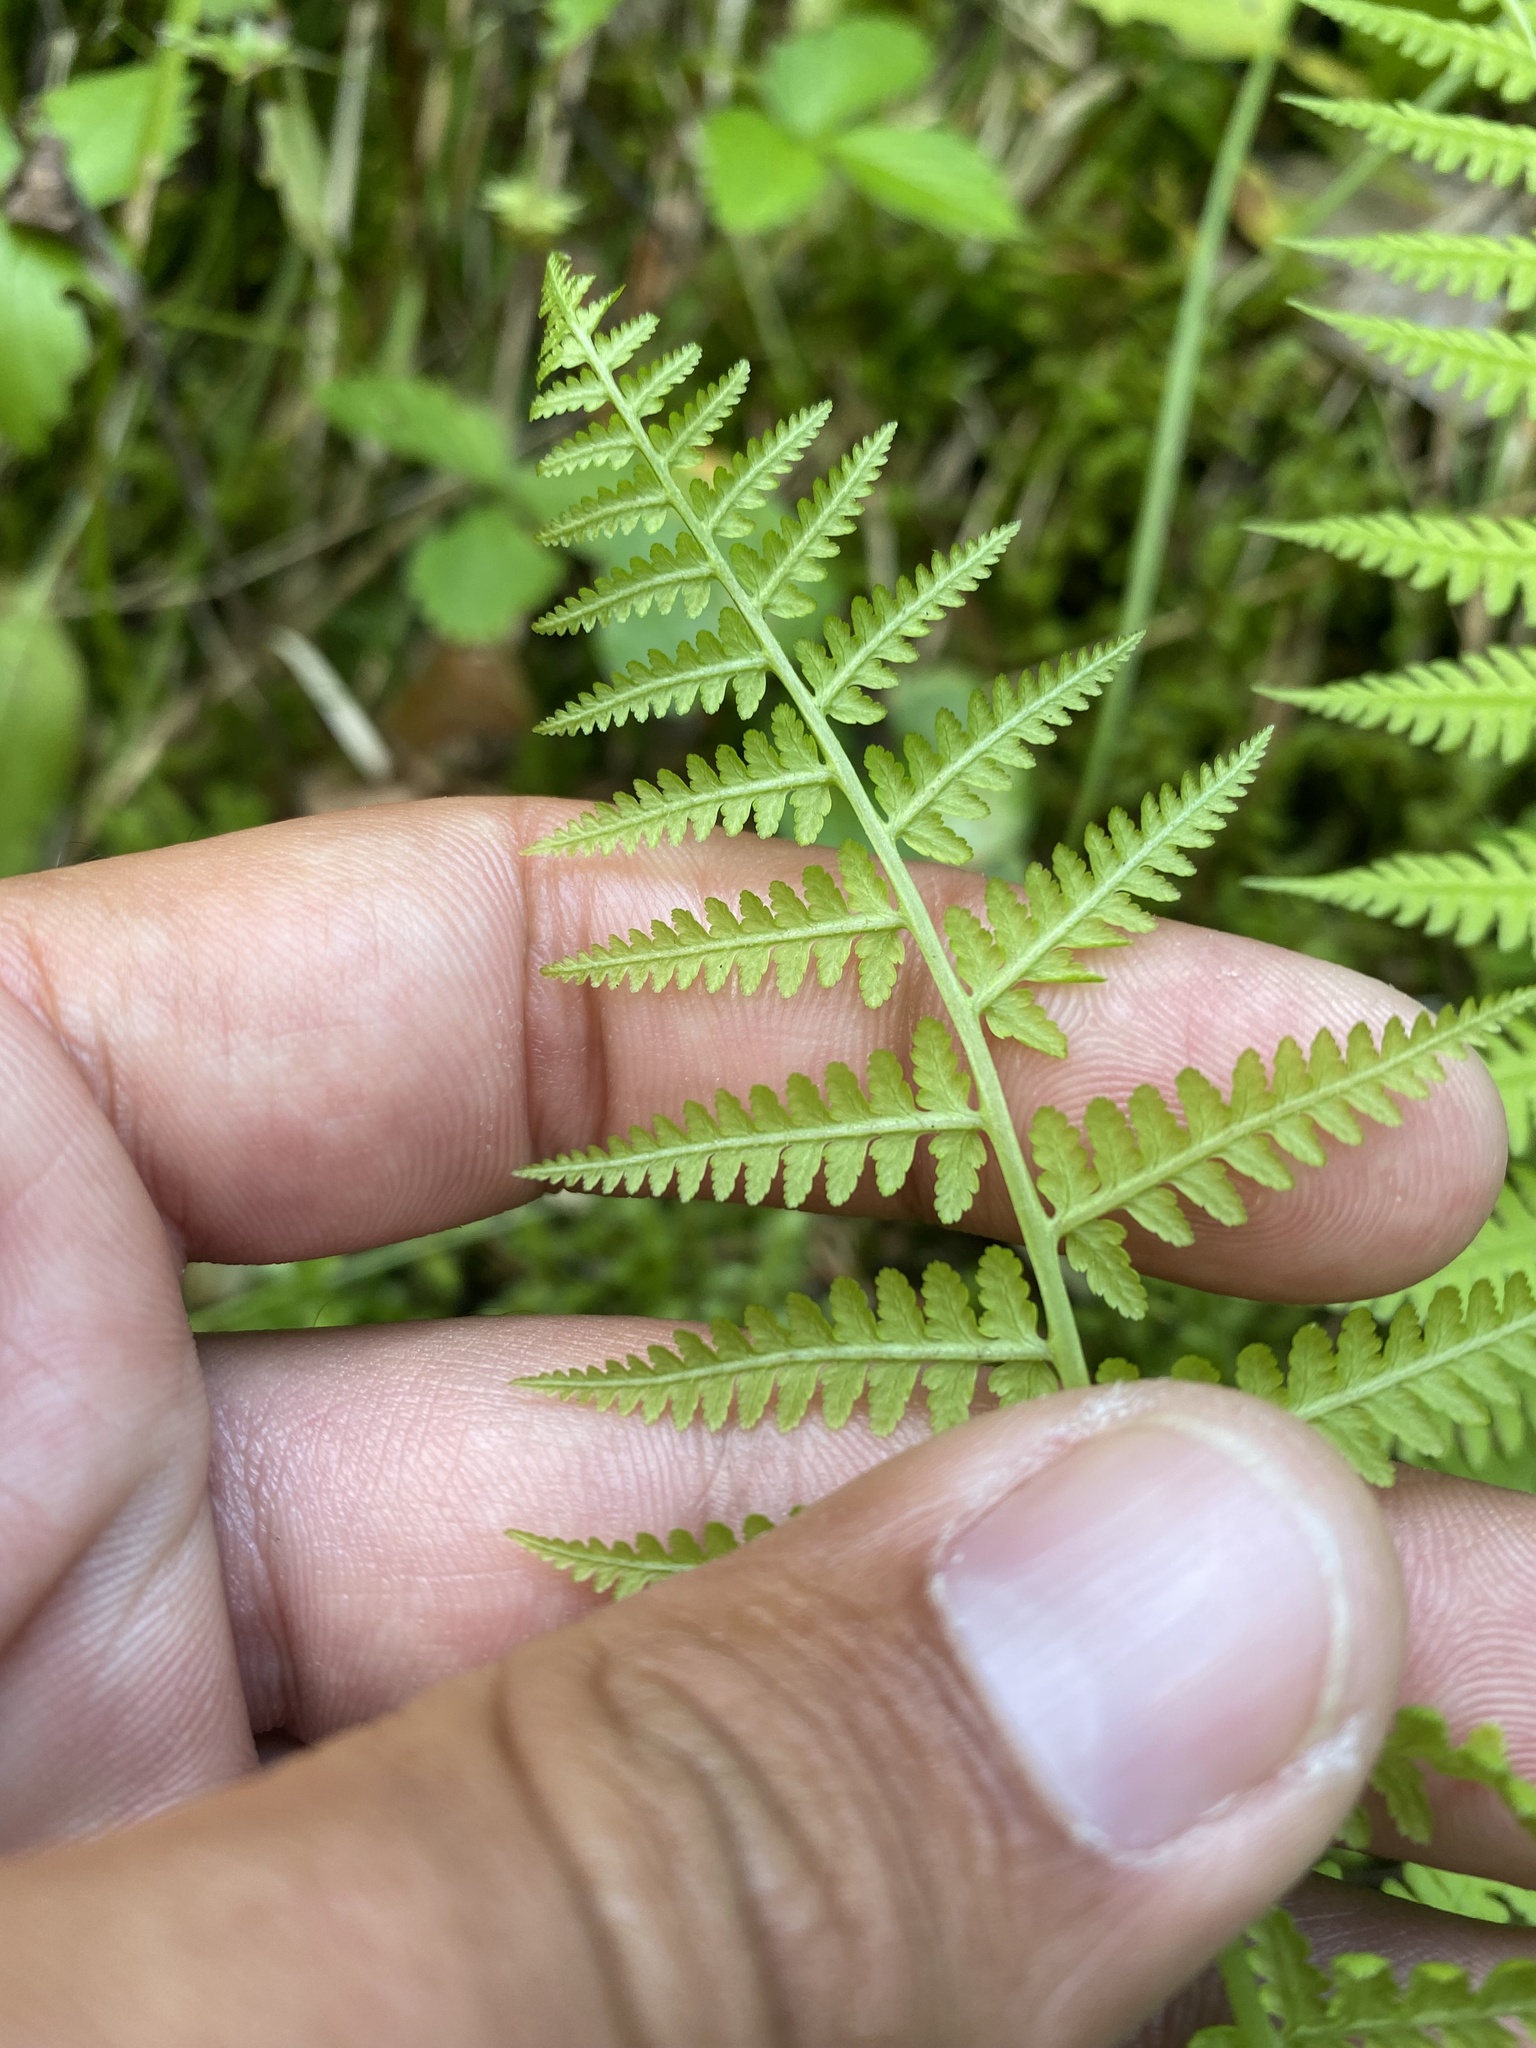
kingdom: Plantae
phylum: Tracheophyta
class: Polypodiopsida
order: Polypodiales
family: Athyriaceae
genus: Athyrium
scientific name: Athyrium filix-femina
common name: Lady fern
